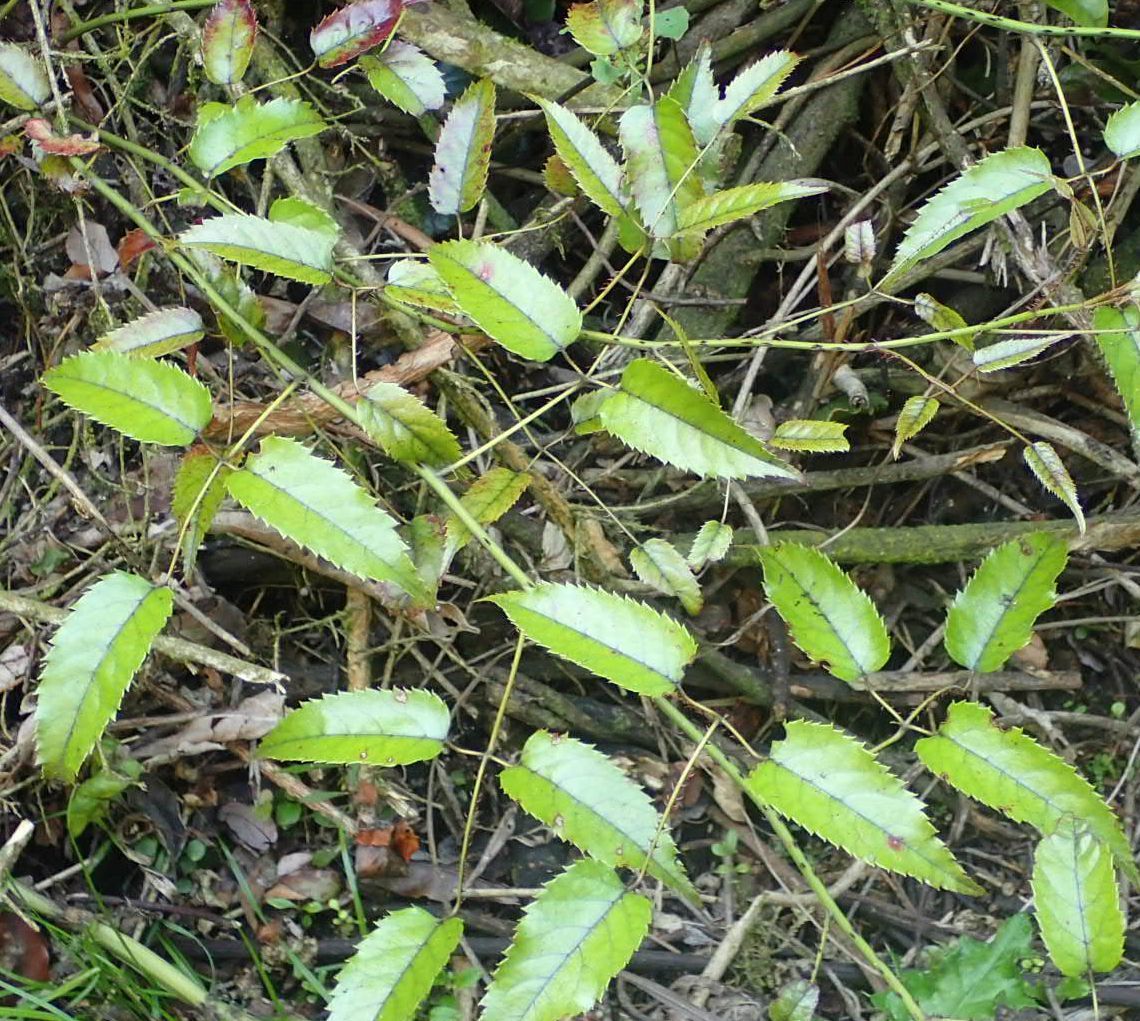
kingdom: Plantae
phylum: Tracheophyta
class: Magnoliopsida
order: Rosales
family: Rosaceae
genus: Rubus
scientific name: Rubus cissoides
